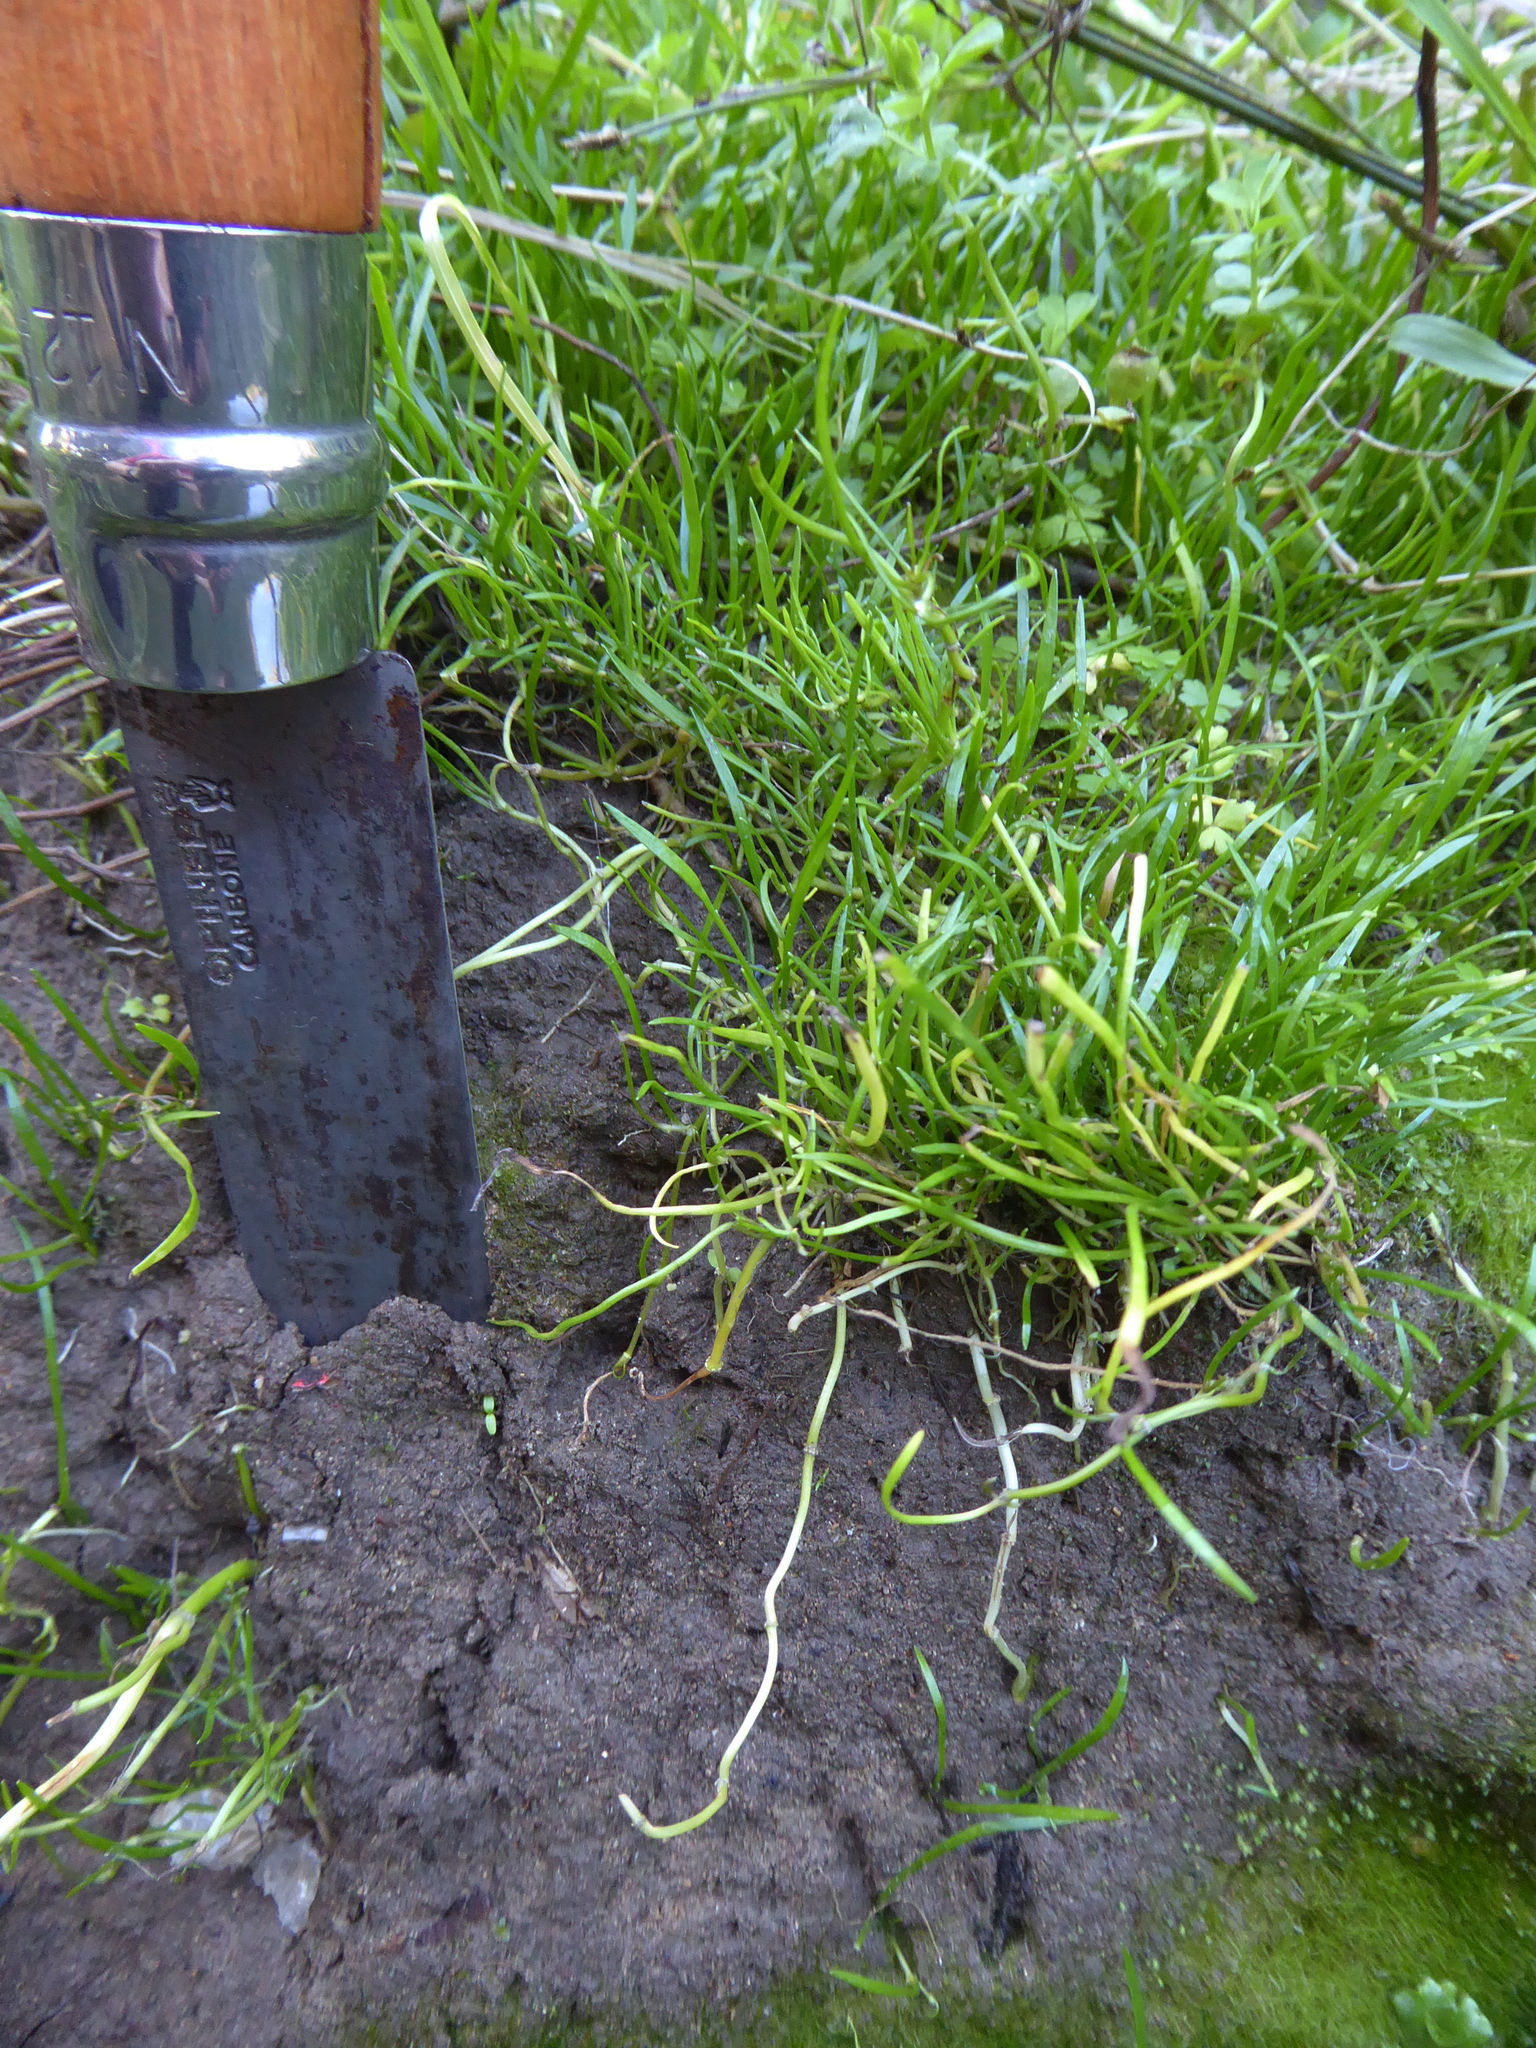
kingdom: Plantae
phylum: Tracheophyta
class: Magnoliopsida
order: Apiales
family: Apiaceae
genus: Lilaeopsis
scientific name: Lilaeopsis minor
